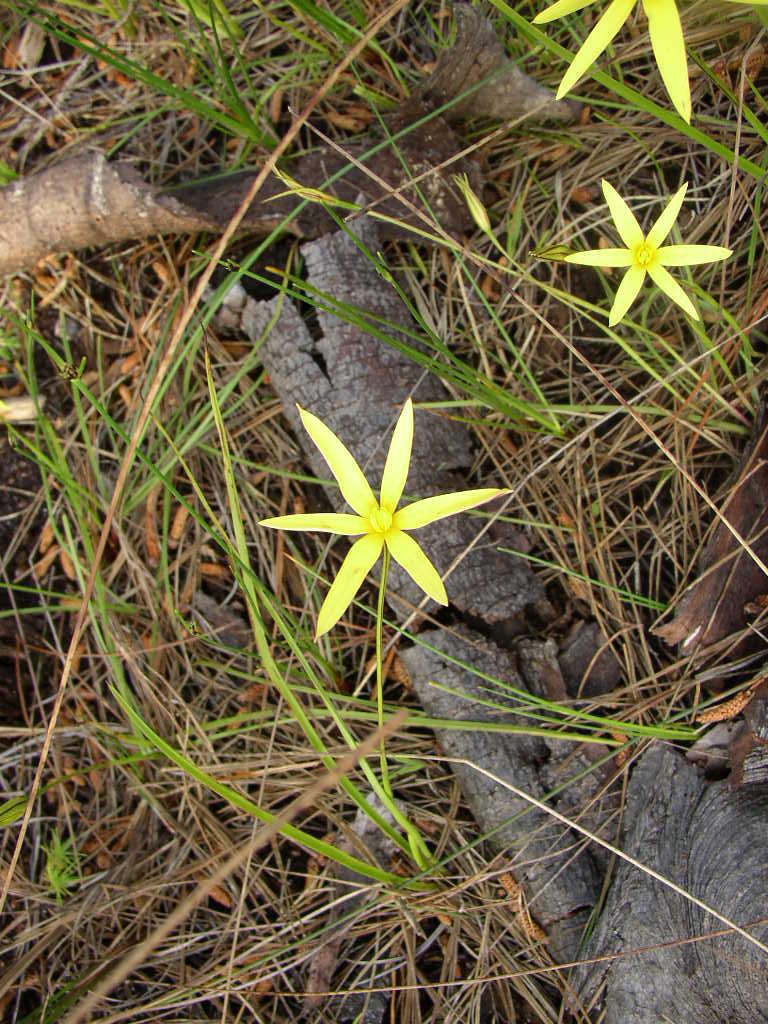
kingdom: Plantae
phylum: Tracheophyta
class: Liliopsida
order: Asparagales
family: Hypoxidaceae
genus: Pauridia
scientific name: Pauridia capensis
